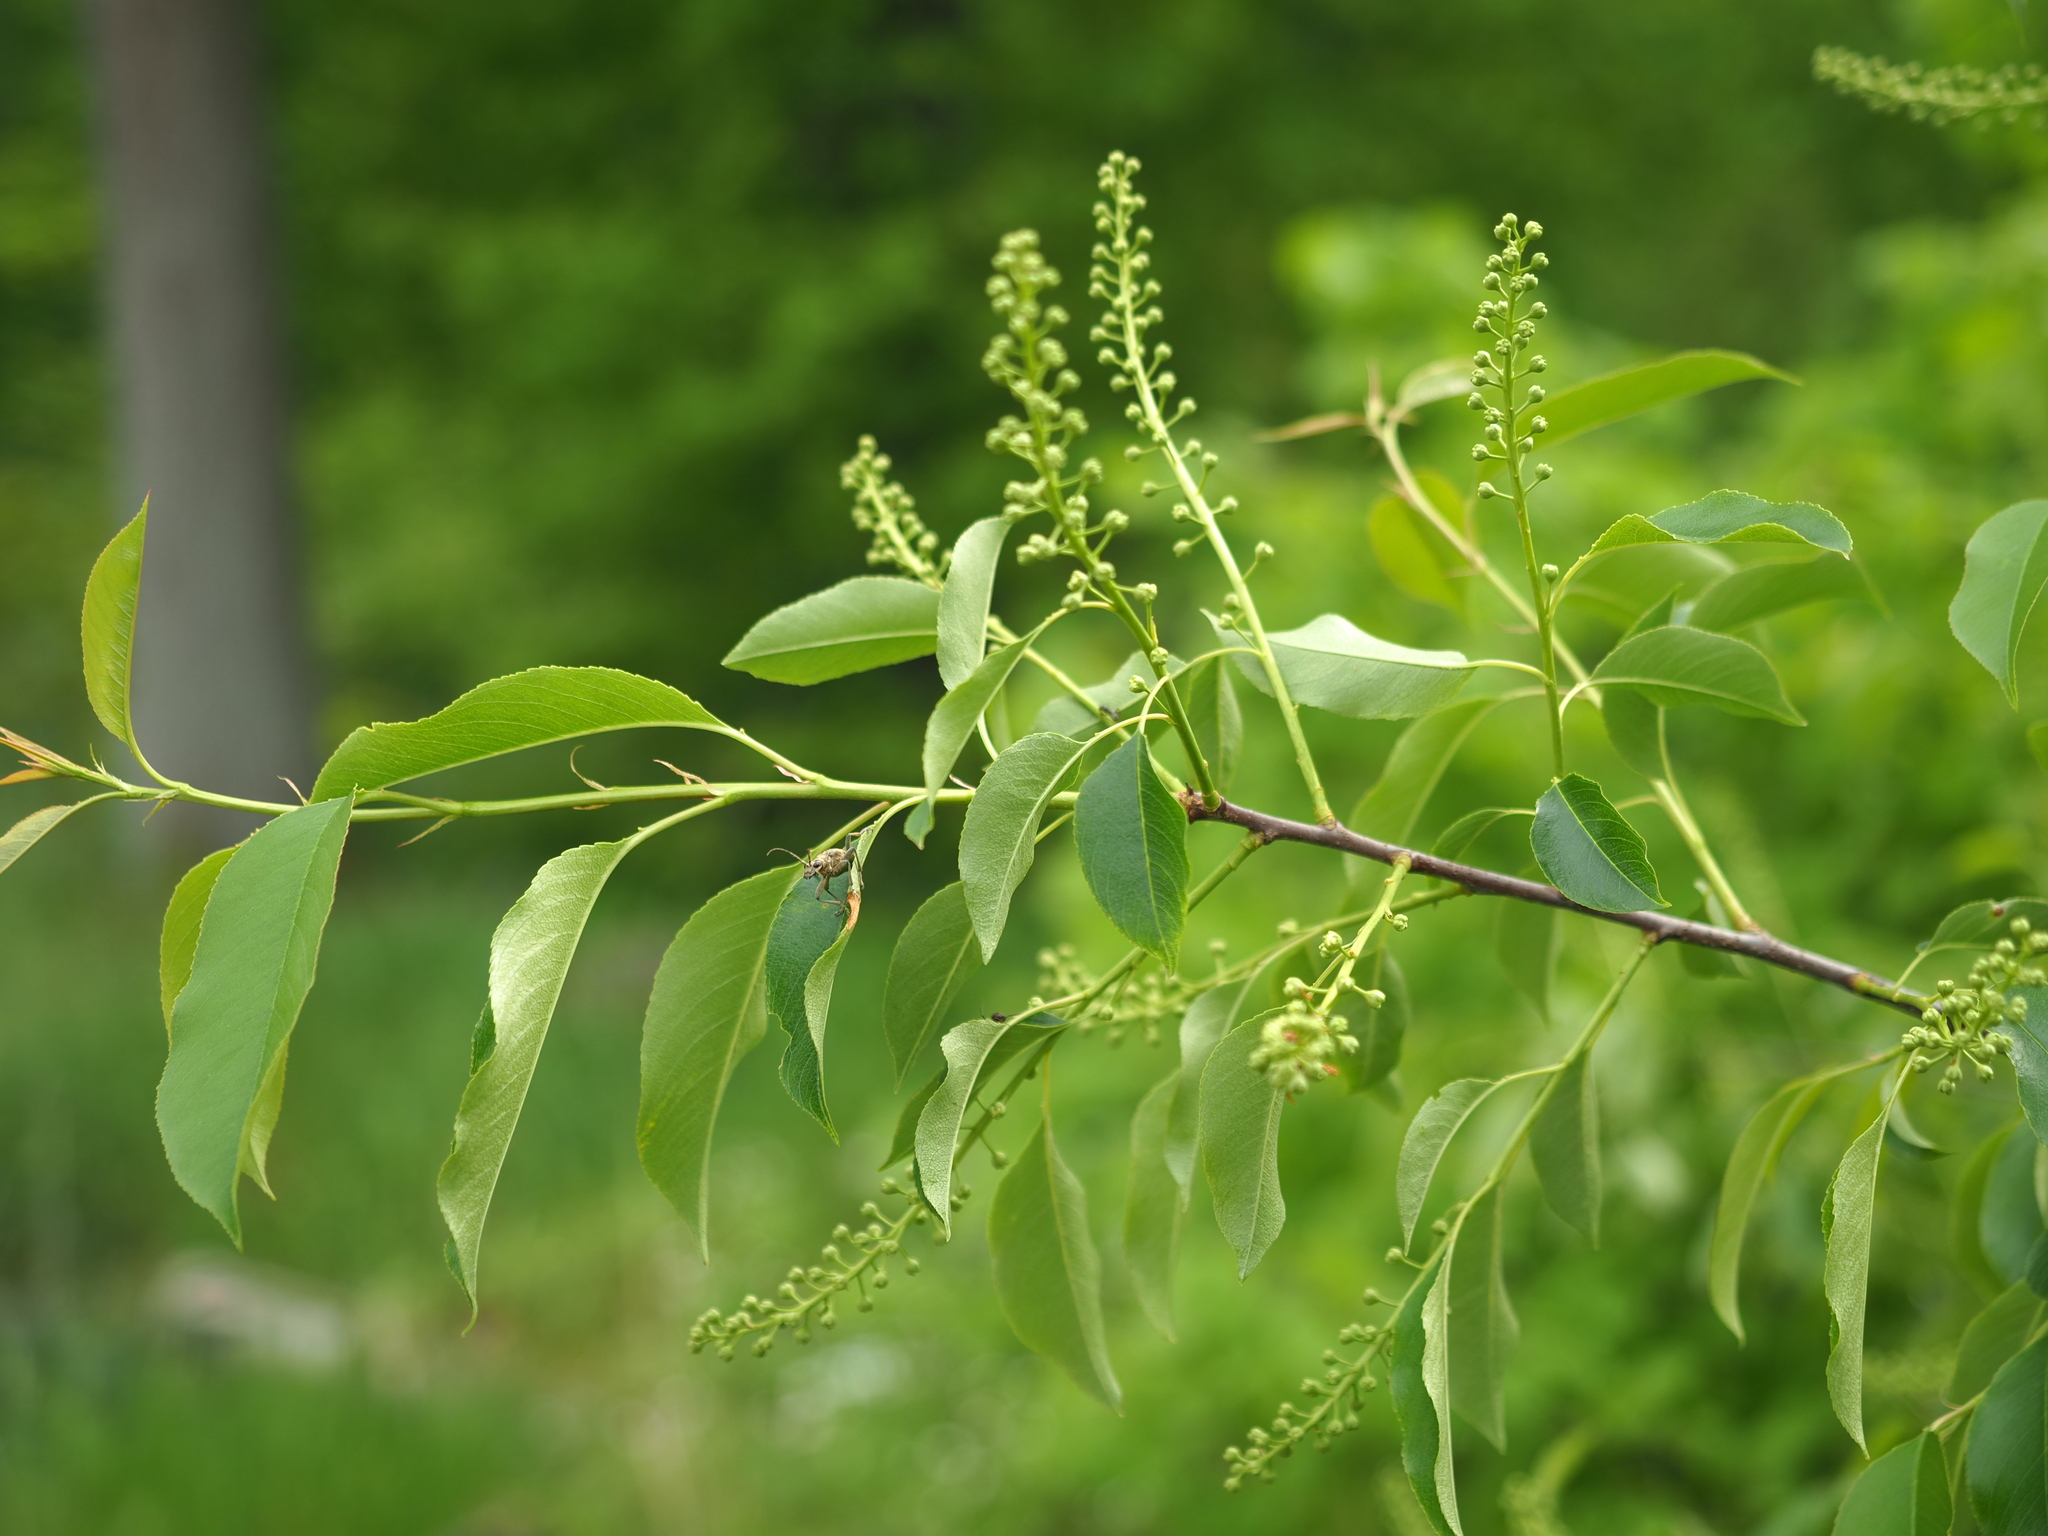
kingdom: Plantae
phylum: Tracheophyta
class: Magnoliopsida
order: Rosales
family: Rosaceae
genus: Prunus
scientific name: Prunus serotina
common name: Black cherry
